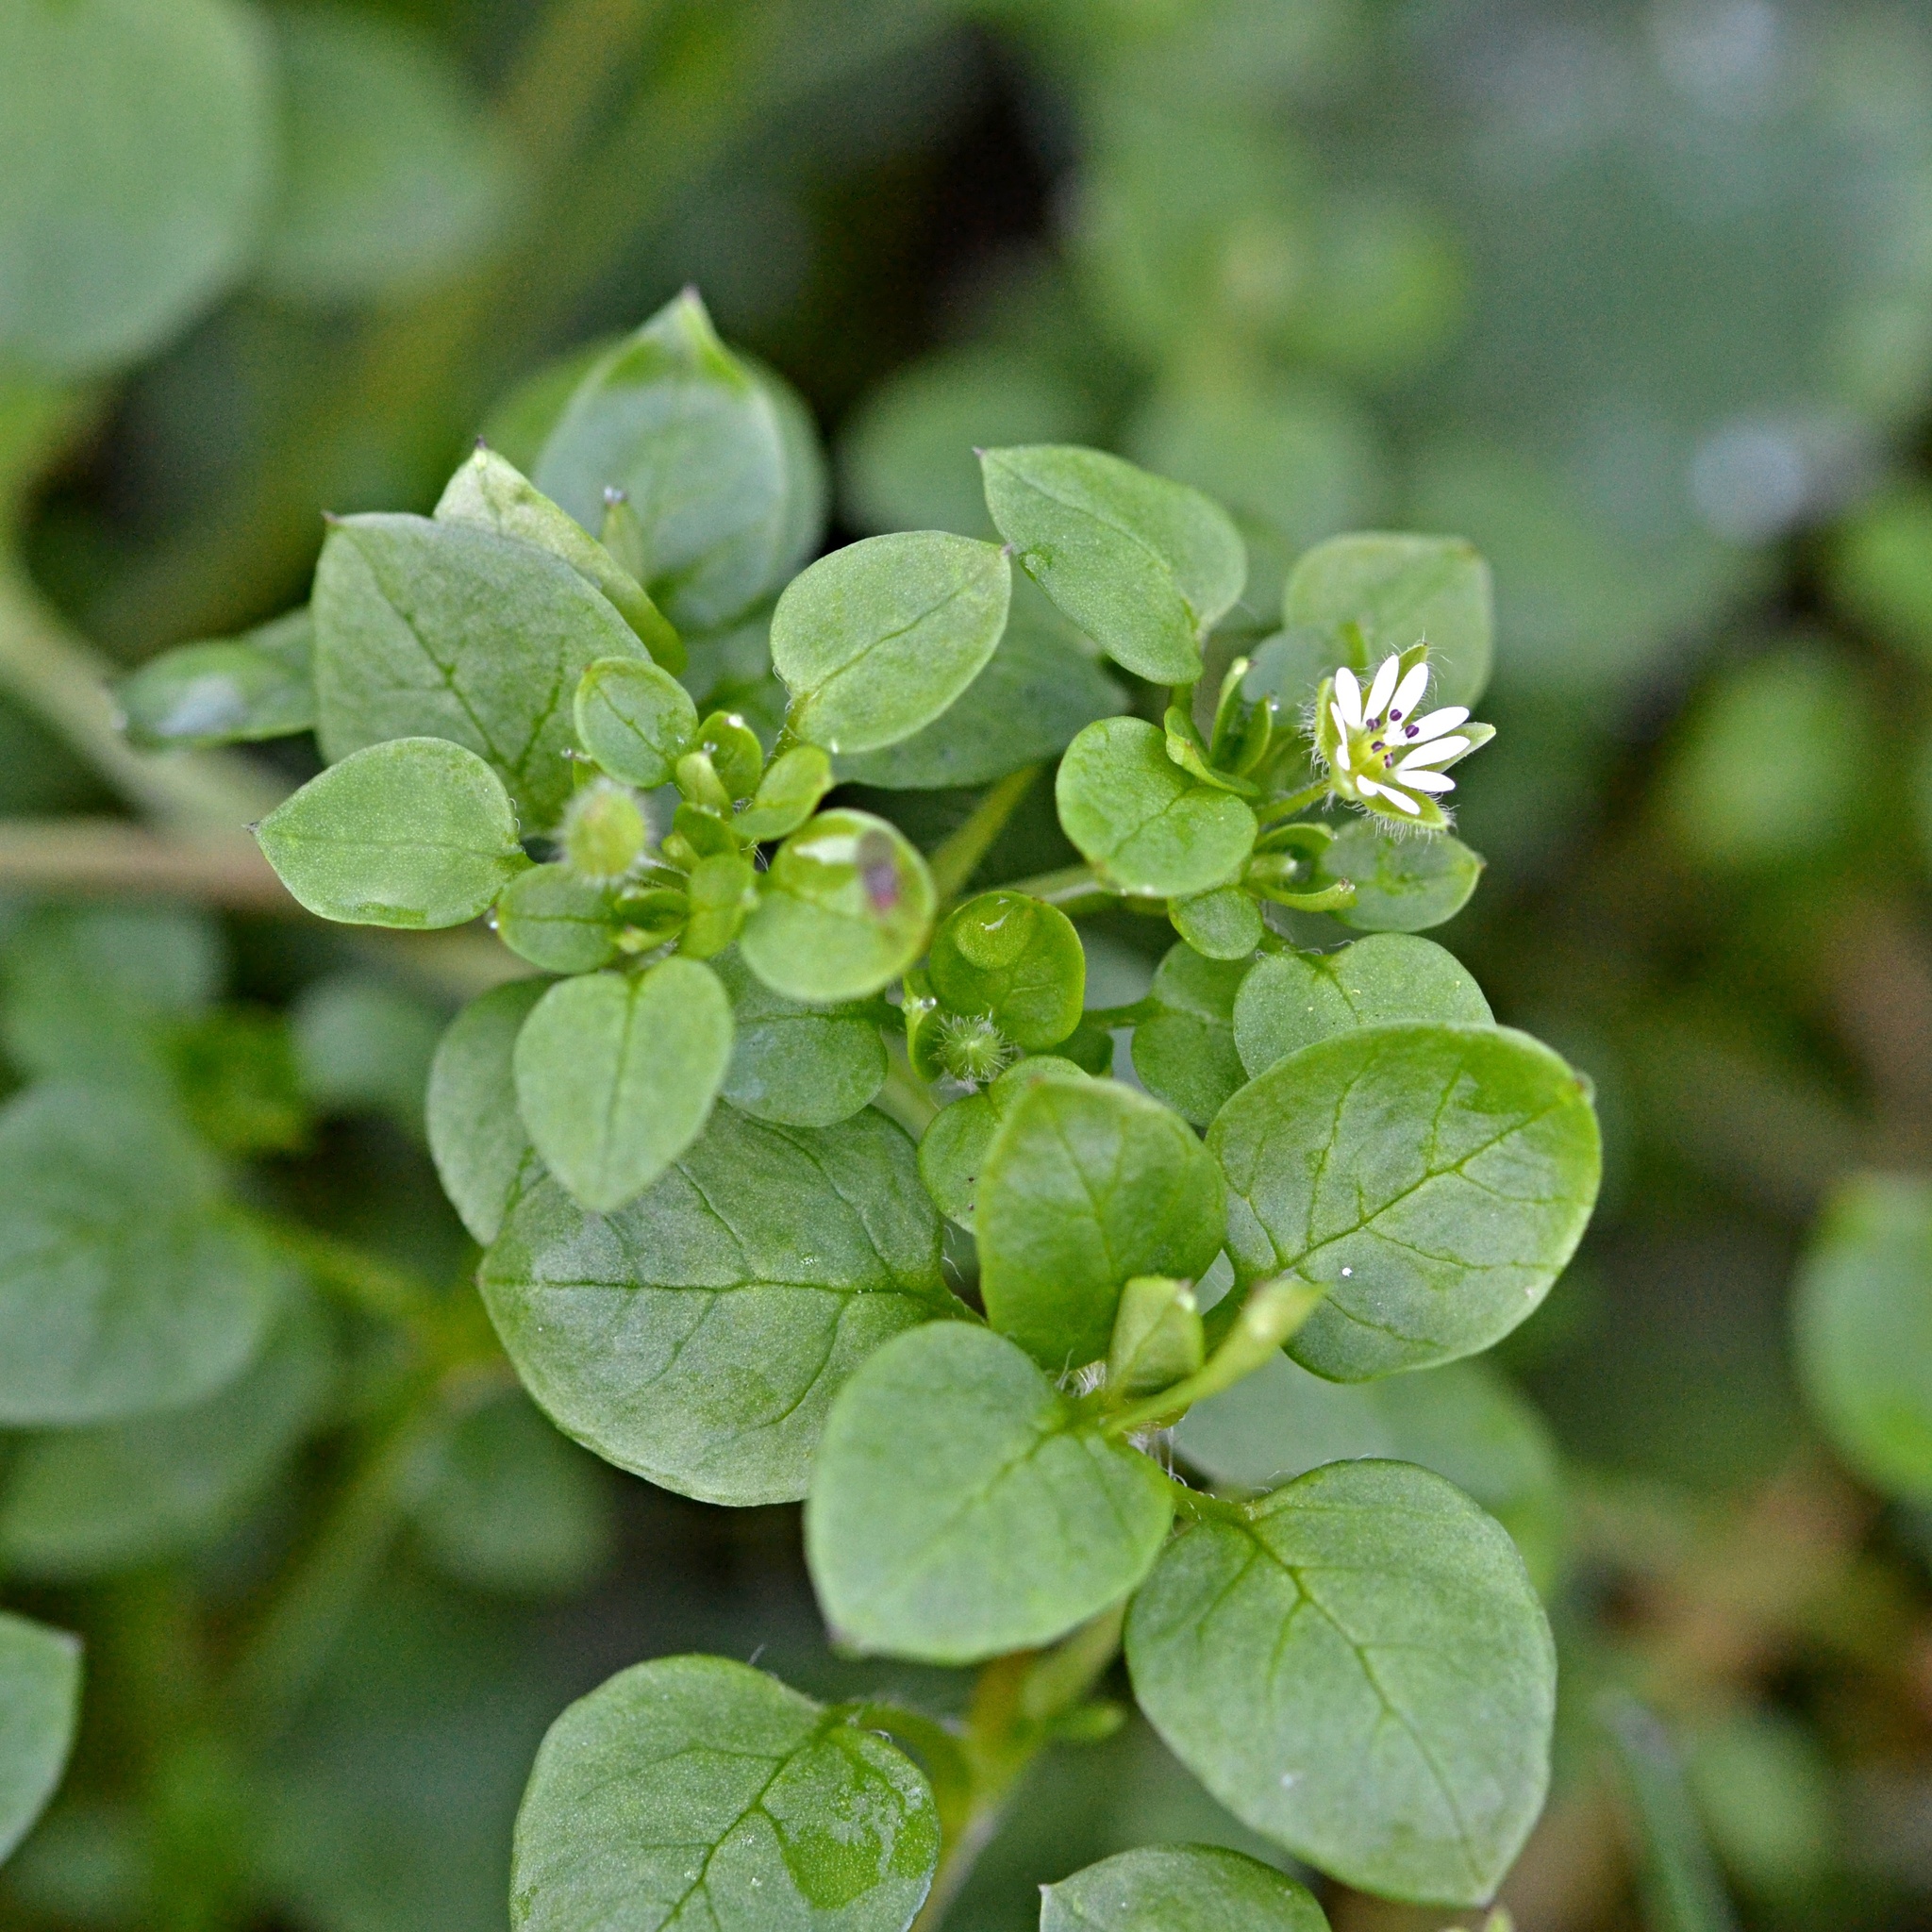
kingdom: Plantae
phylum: Tracheophyta
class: Magnoliopsida
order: Caryophyllales
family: Caryophyllaceae
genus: Stellaria
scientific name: Stellaria media
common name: Common chickweed
